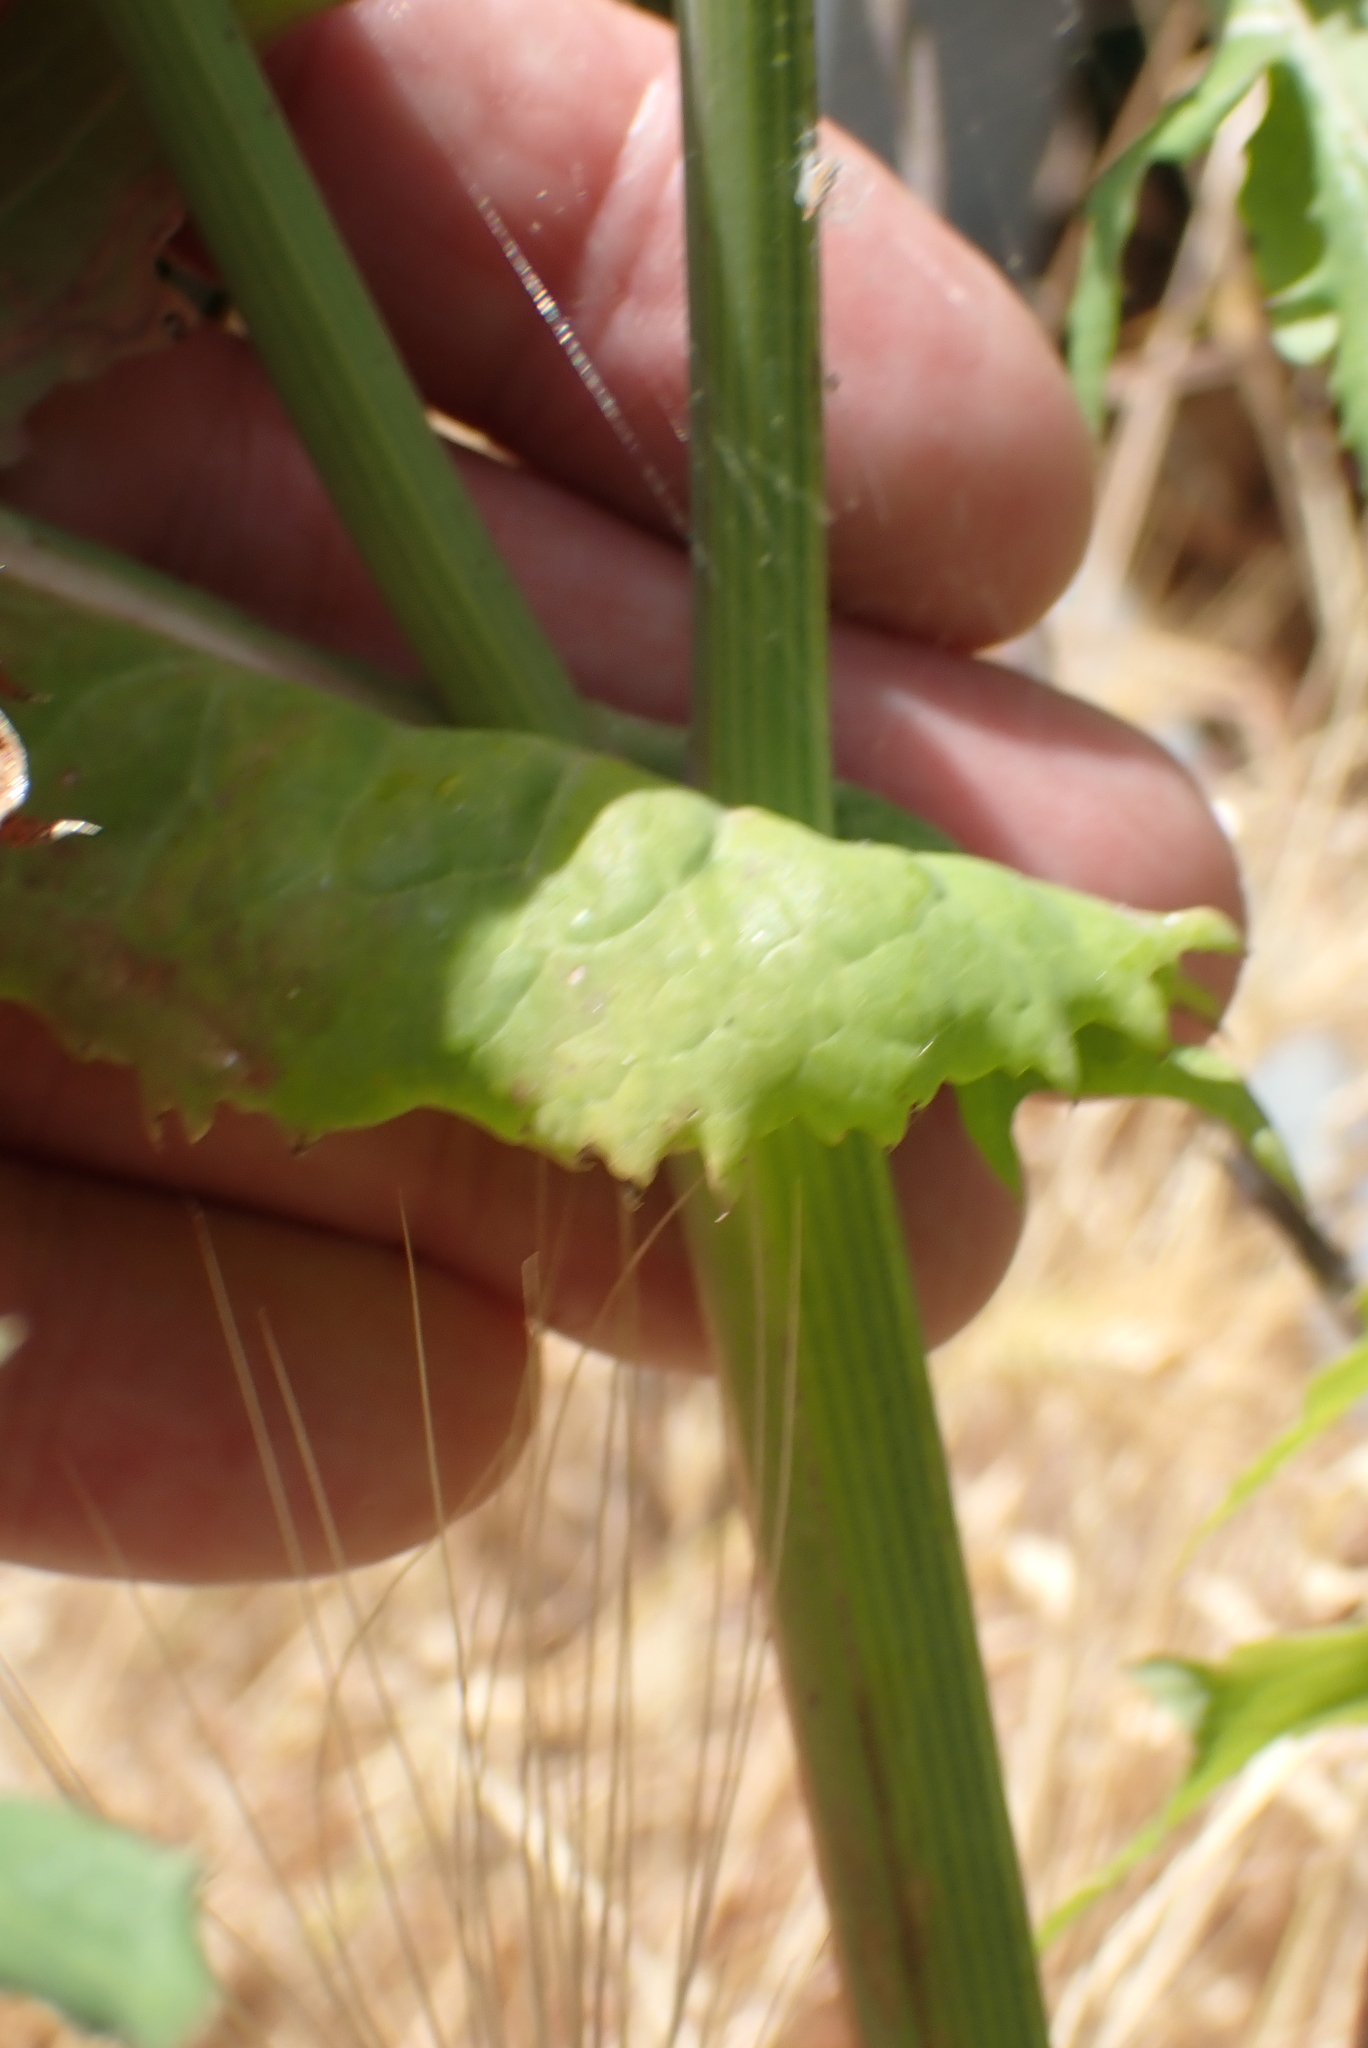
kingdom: Plantae
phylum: Tracheophyta
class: Magnoliopsida
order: Asterales
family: Asteraceae
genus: Sonchus
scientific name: Sonchus oleraceus
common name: Common sowthistle
